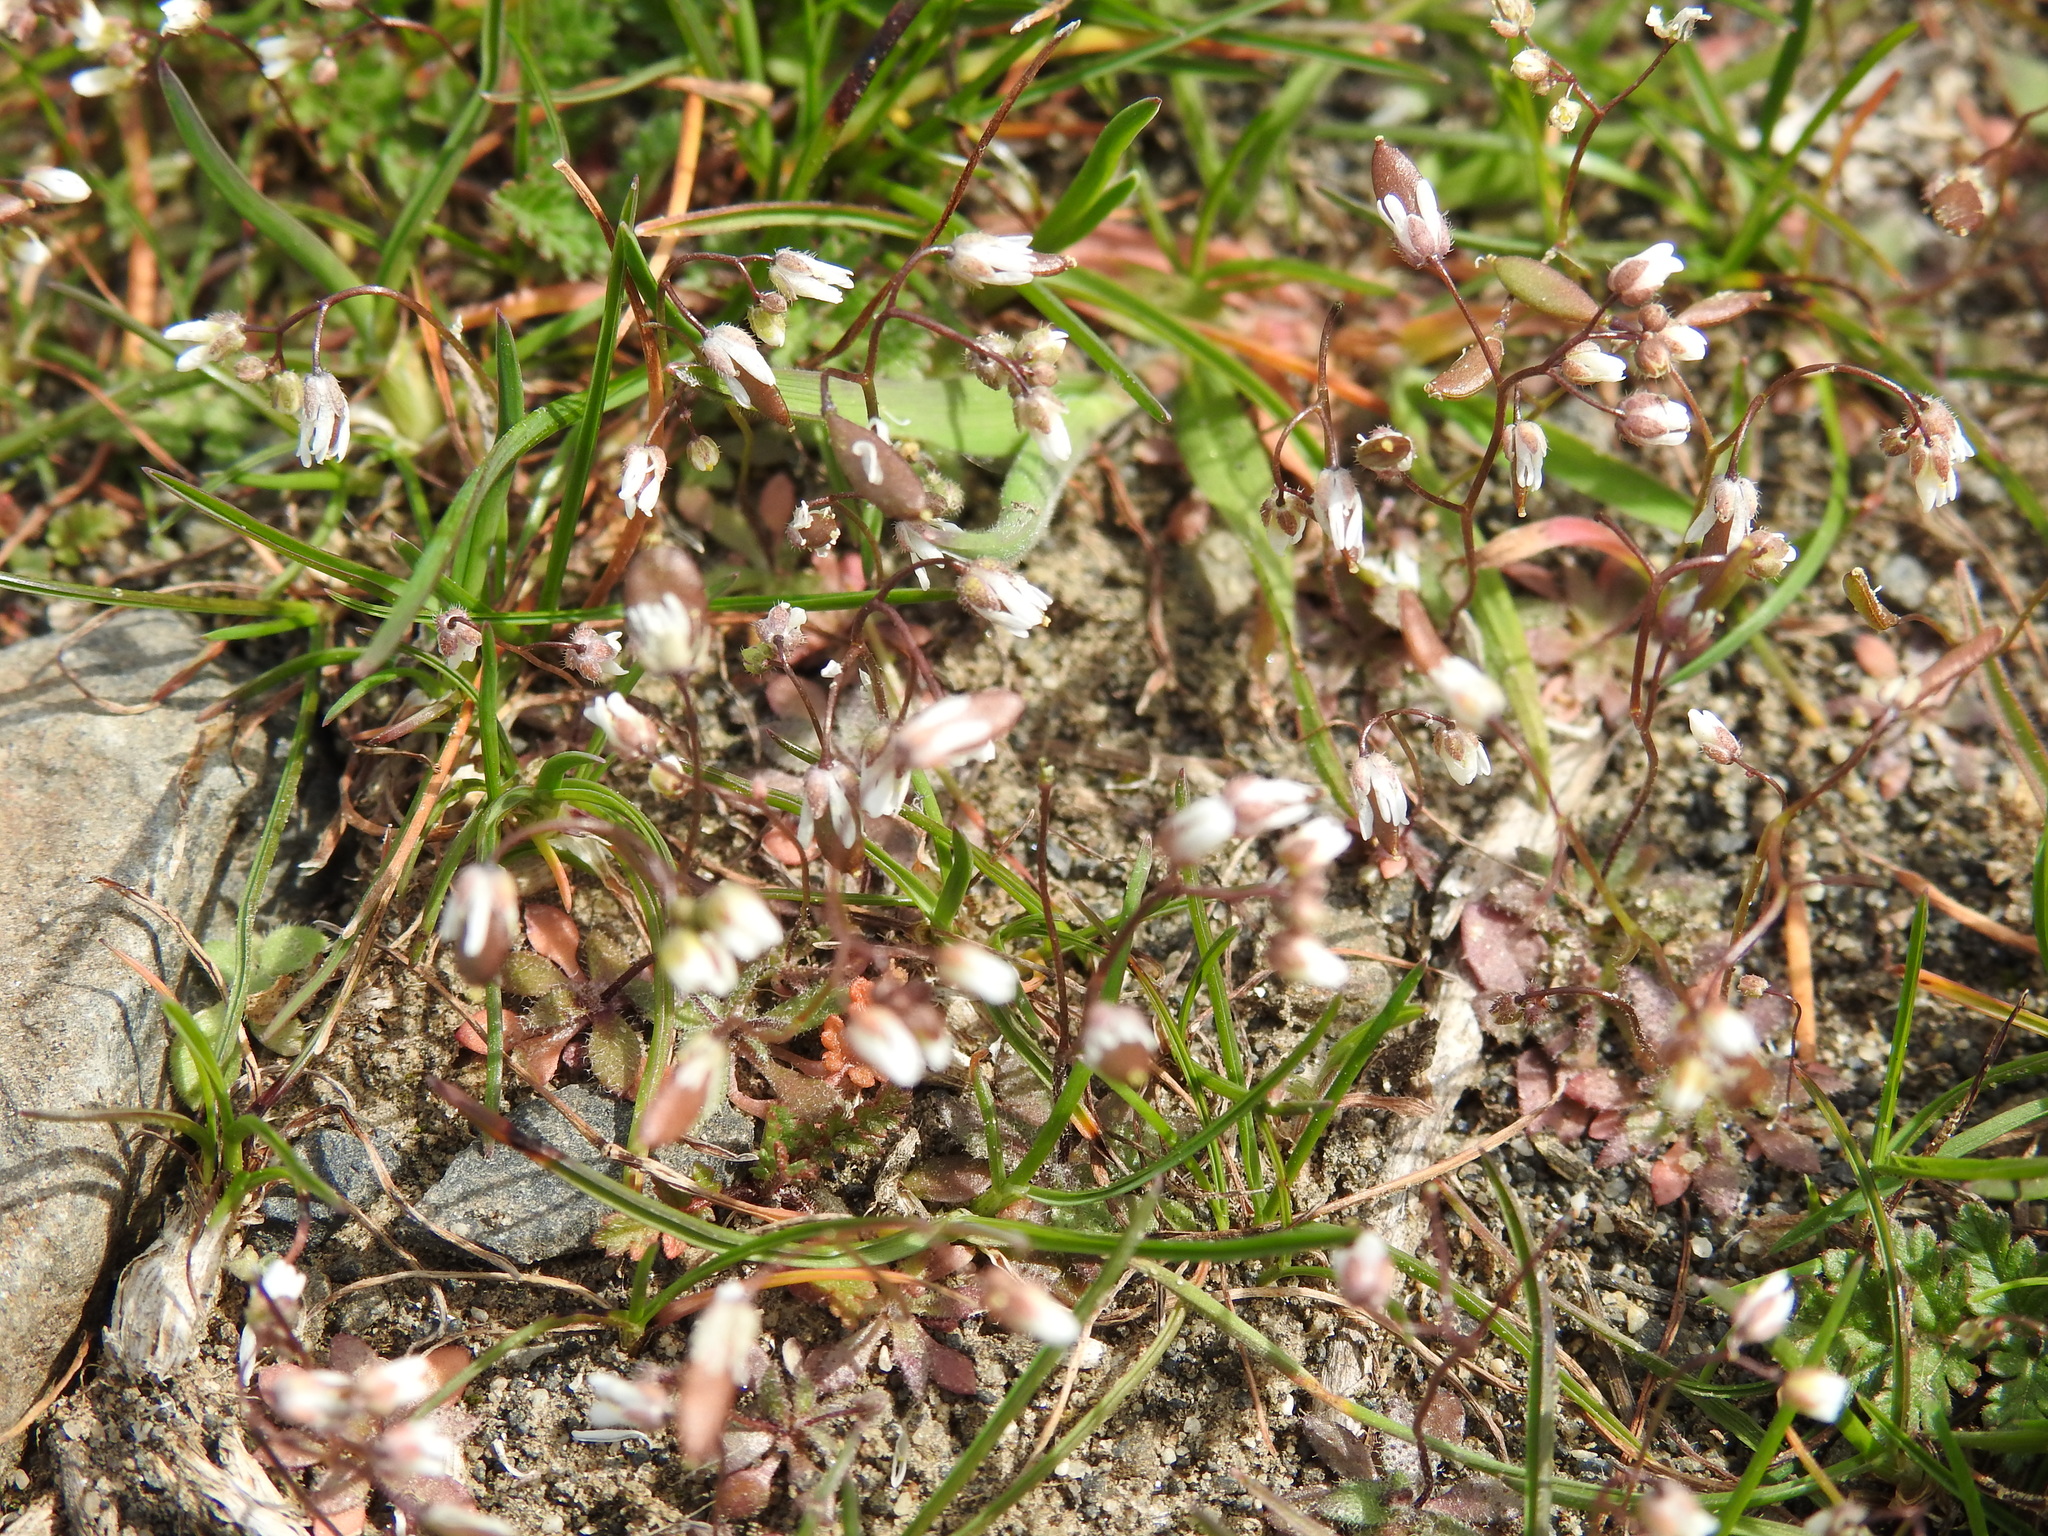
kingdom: Plantae
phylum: Tracheophyta
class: Magnoliopsida
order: Brassicales
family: Brassicaceae
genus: Draba
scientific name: Draba verna
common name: Spring draba
